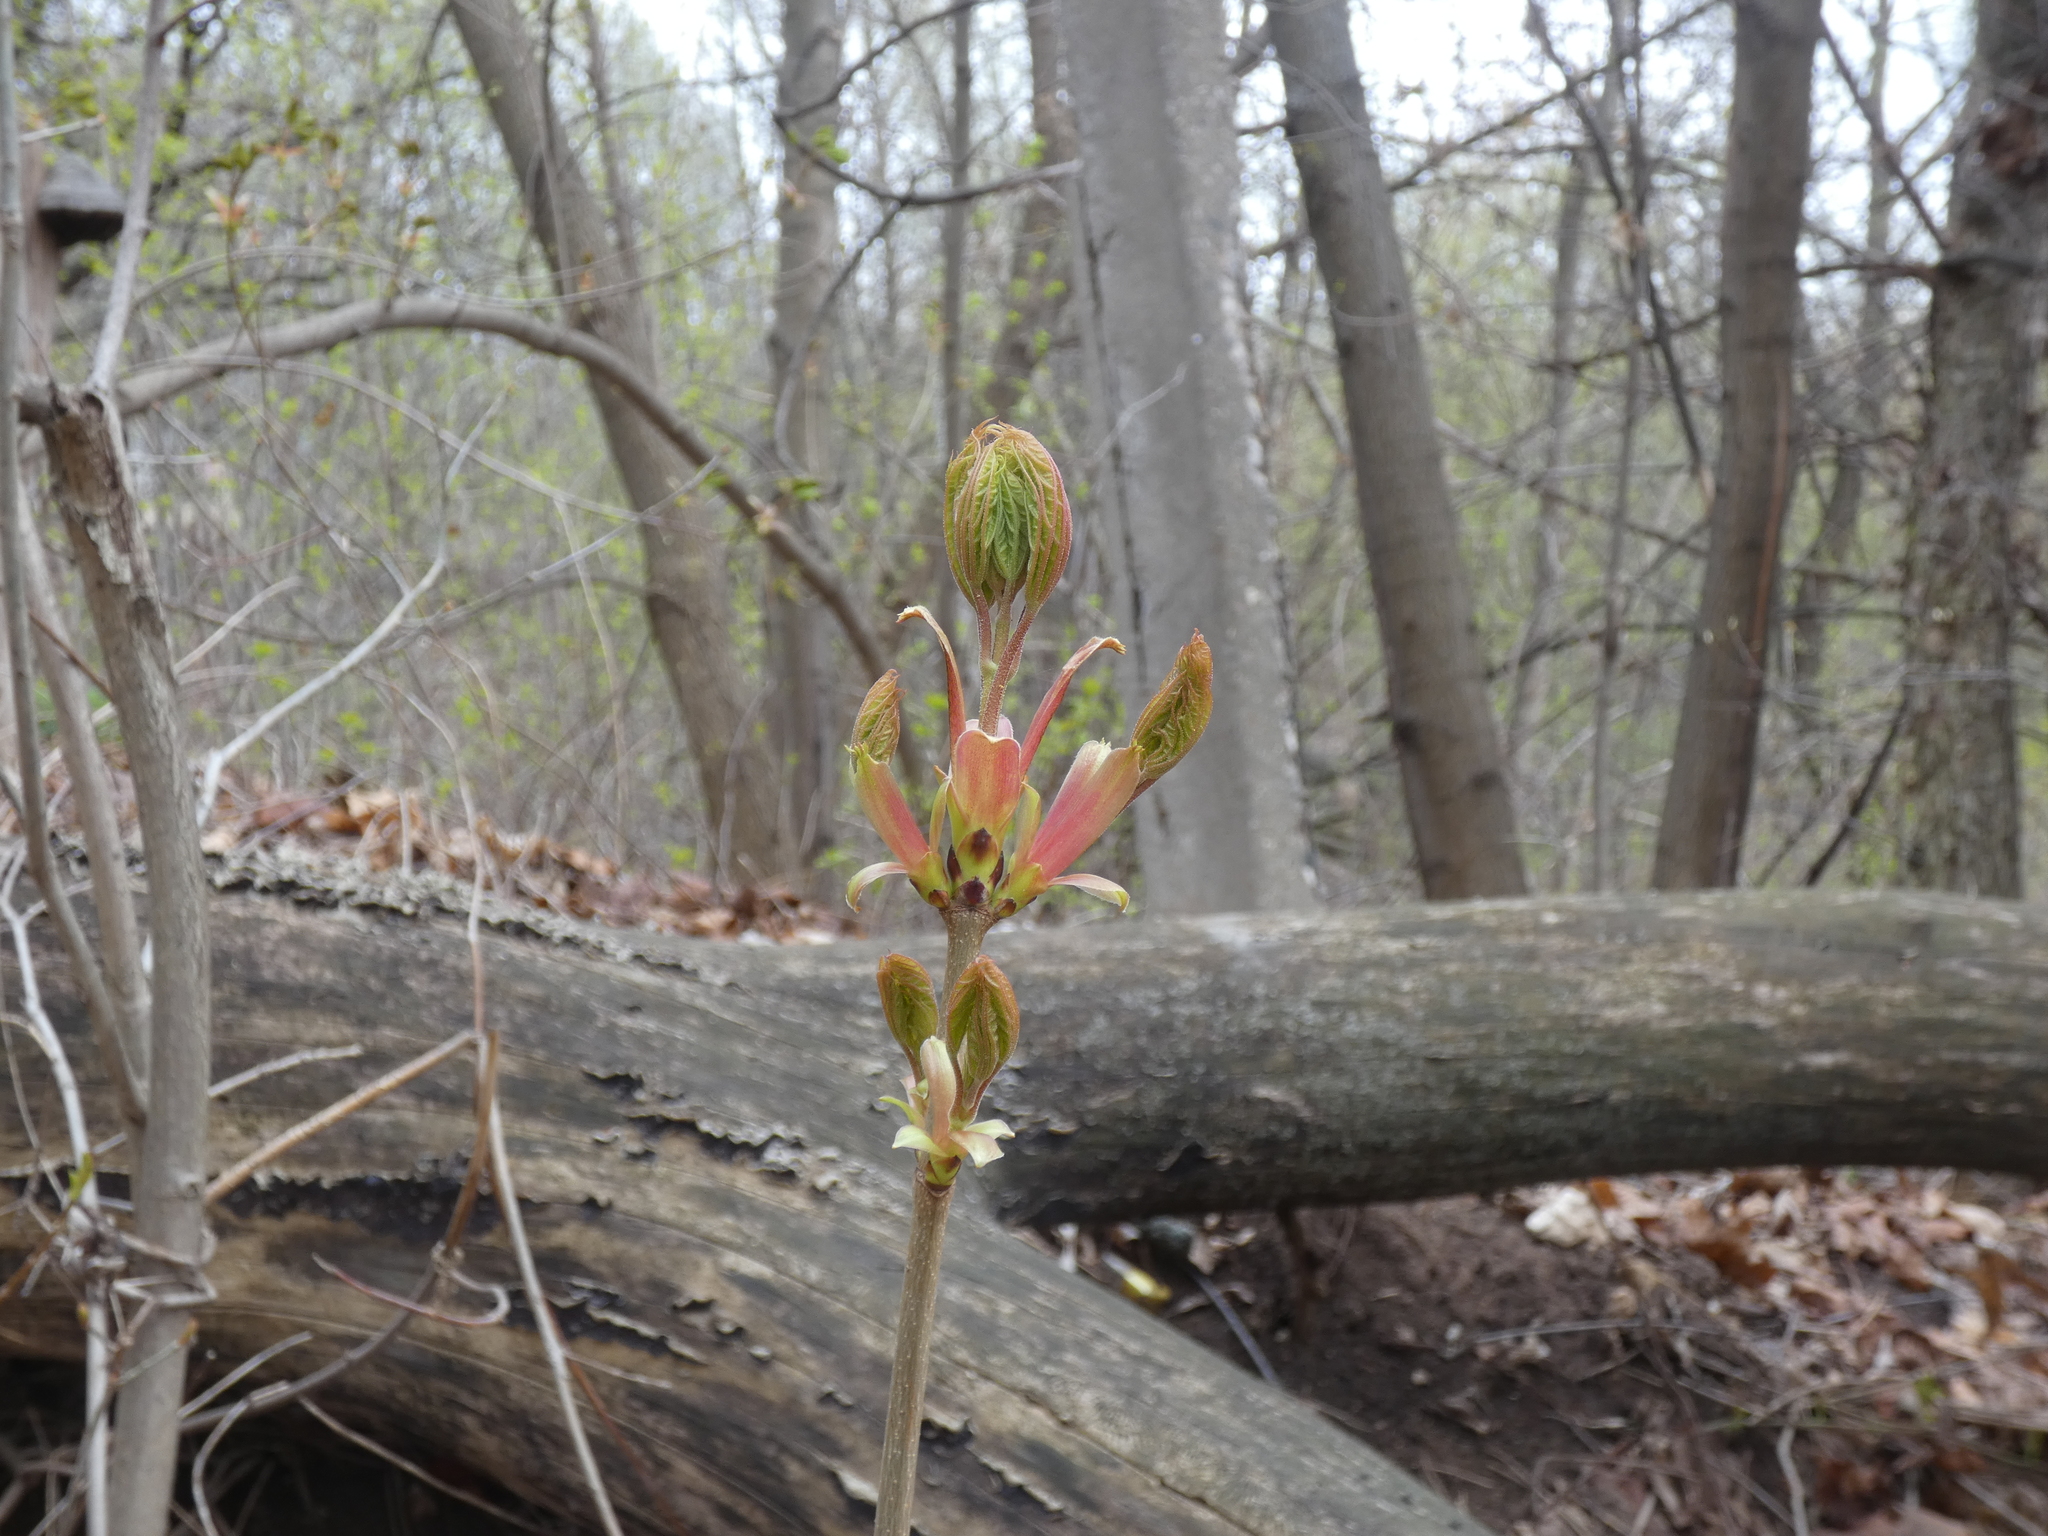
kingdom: Plantae
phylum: Tracheophyta
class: Magnoliopsida
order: Sapindales
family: Sapindaceae
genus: Acer
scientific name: Acer platanoides
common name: Norway maple
